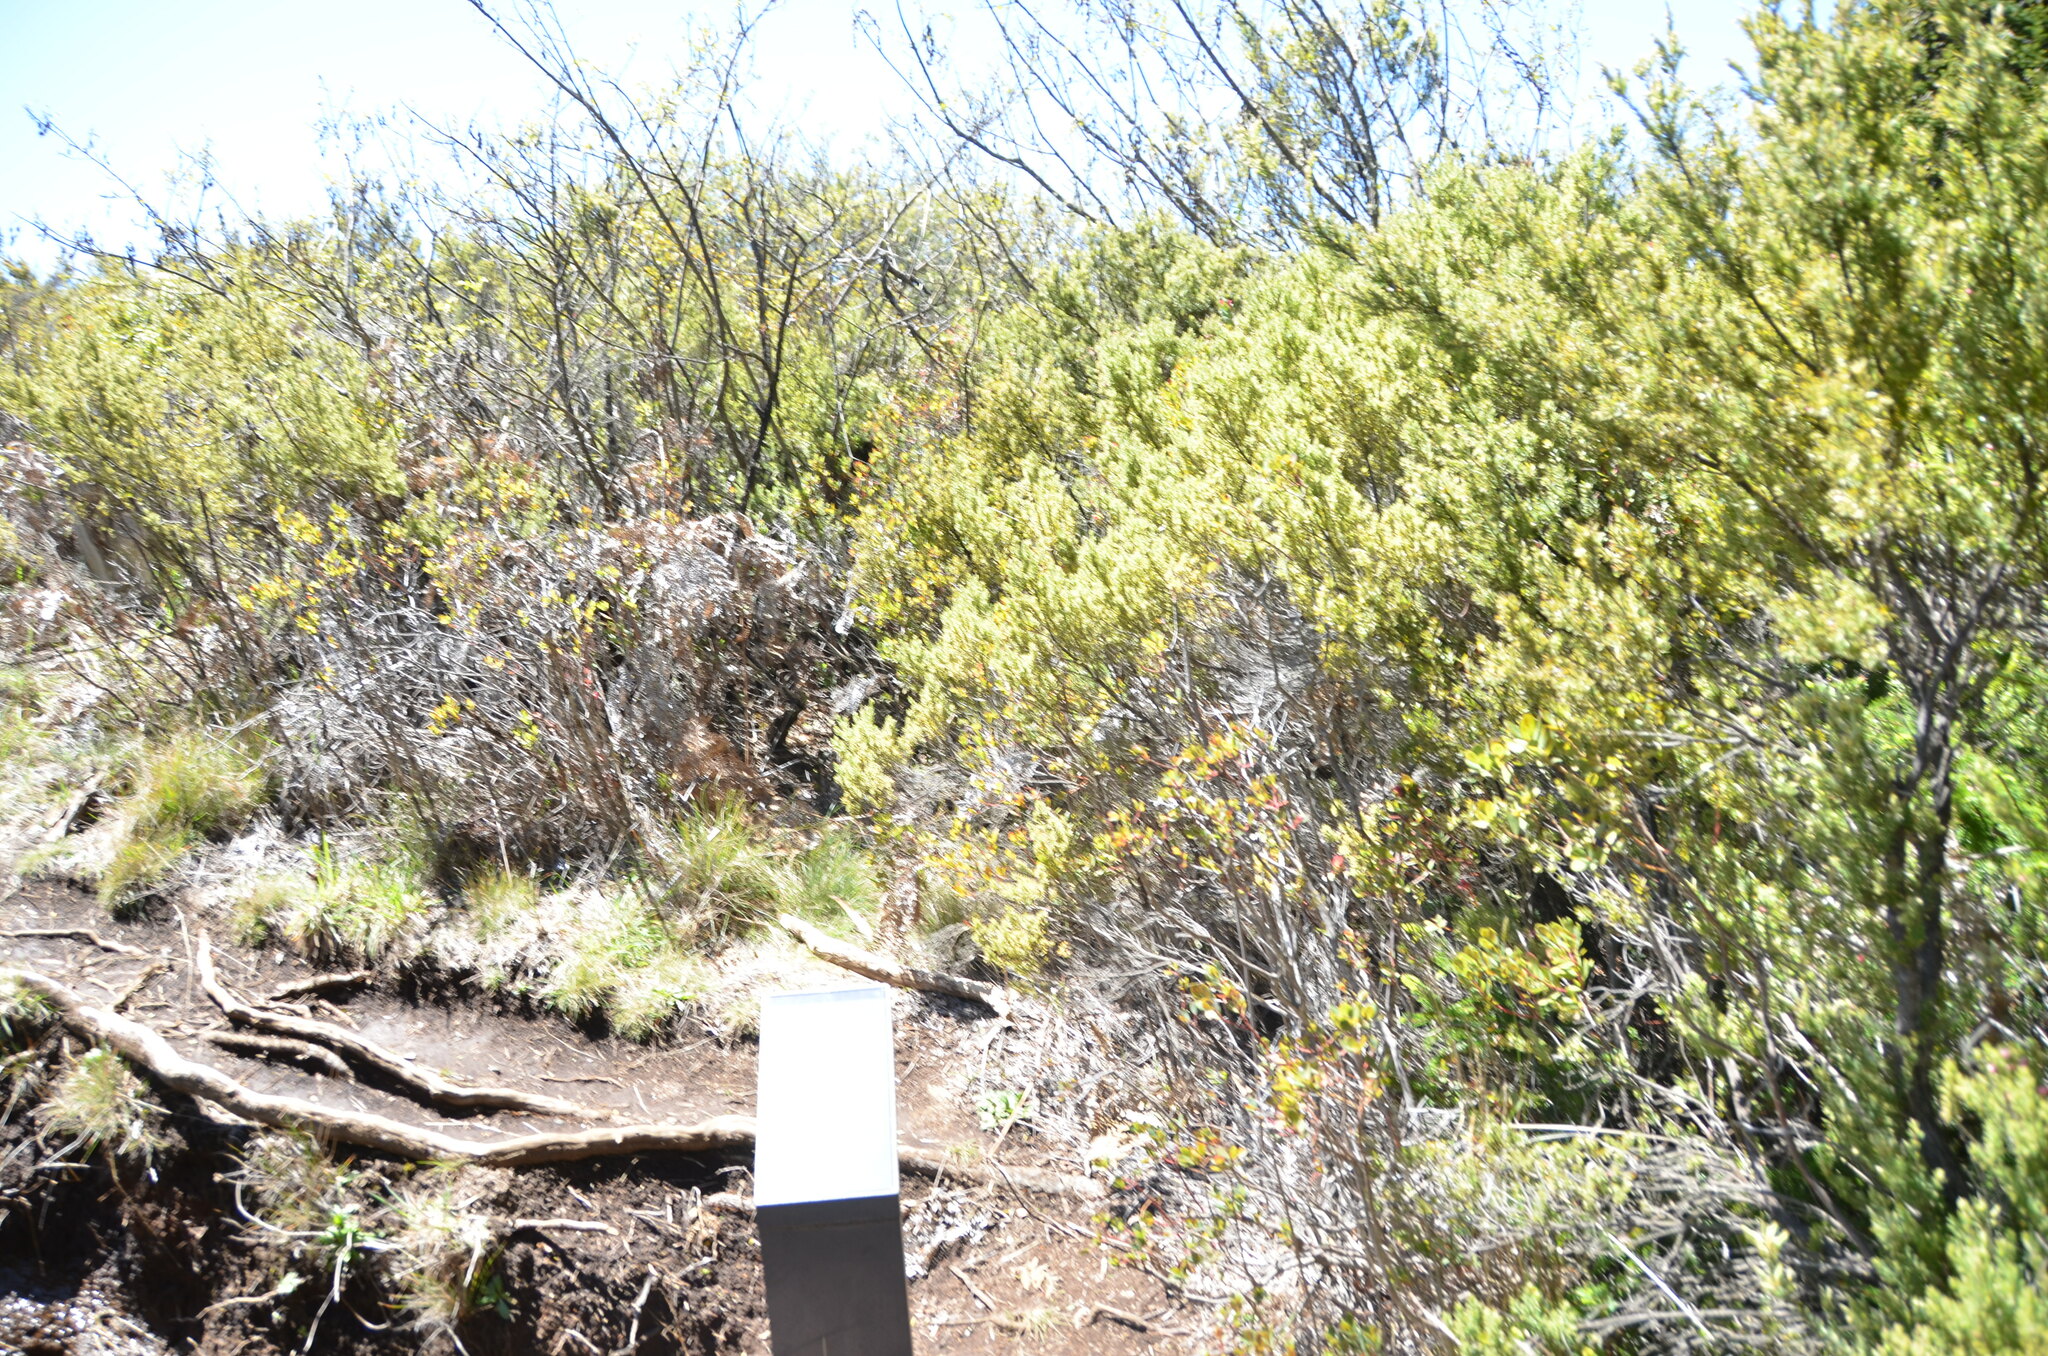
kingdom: Plantae
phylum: Tracheophyta
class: Magnoliopsida
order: Ericales
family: Ericaceae
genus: Leptecophylla
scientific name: Leptecophylla tameiameiae
